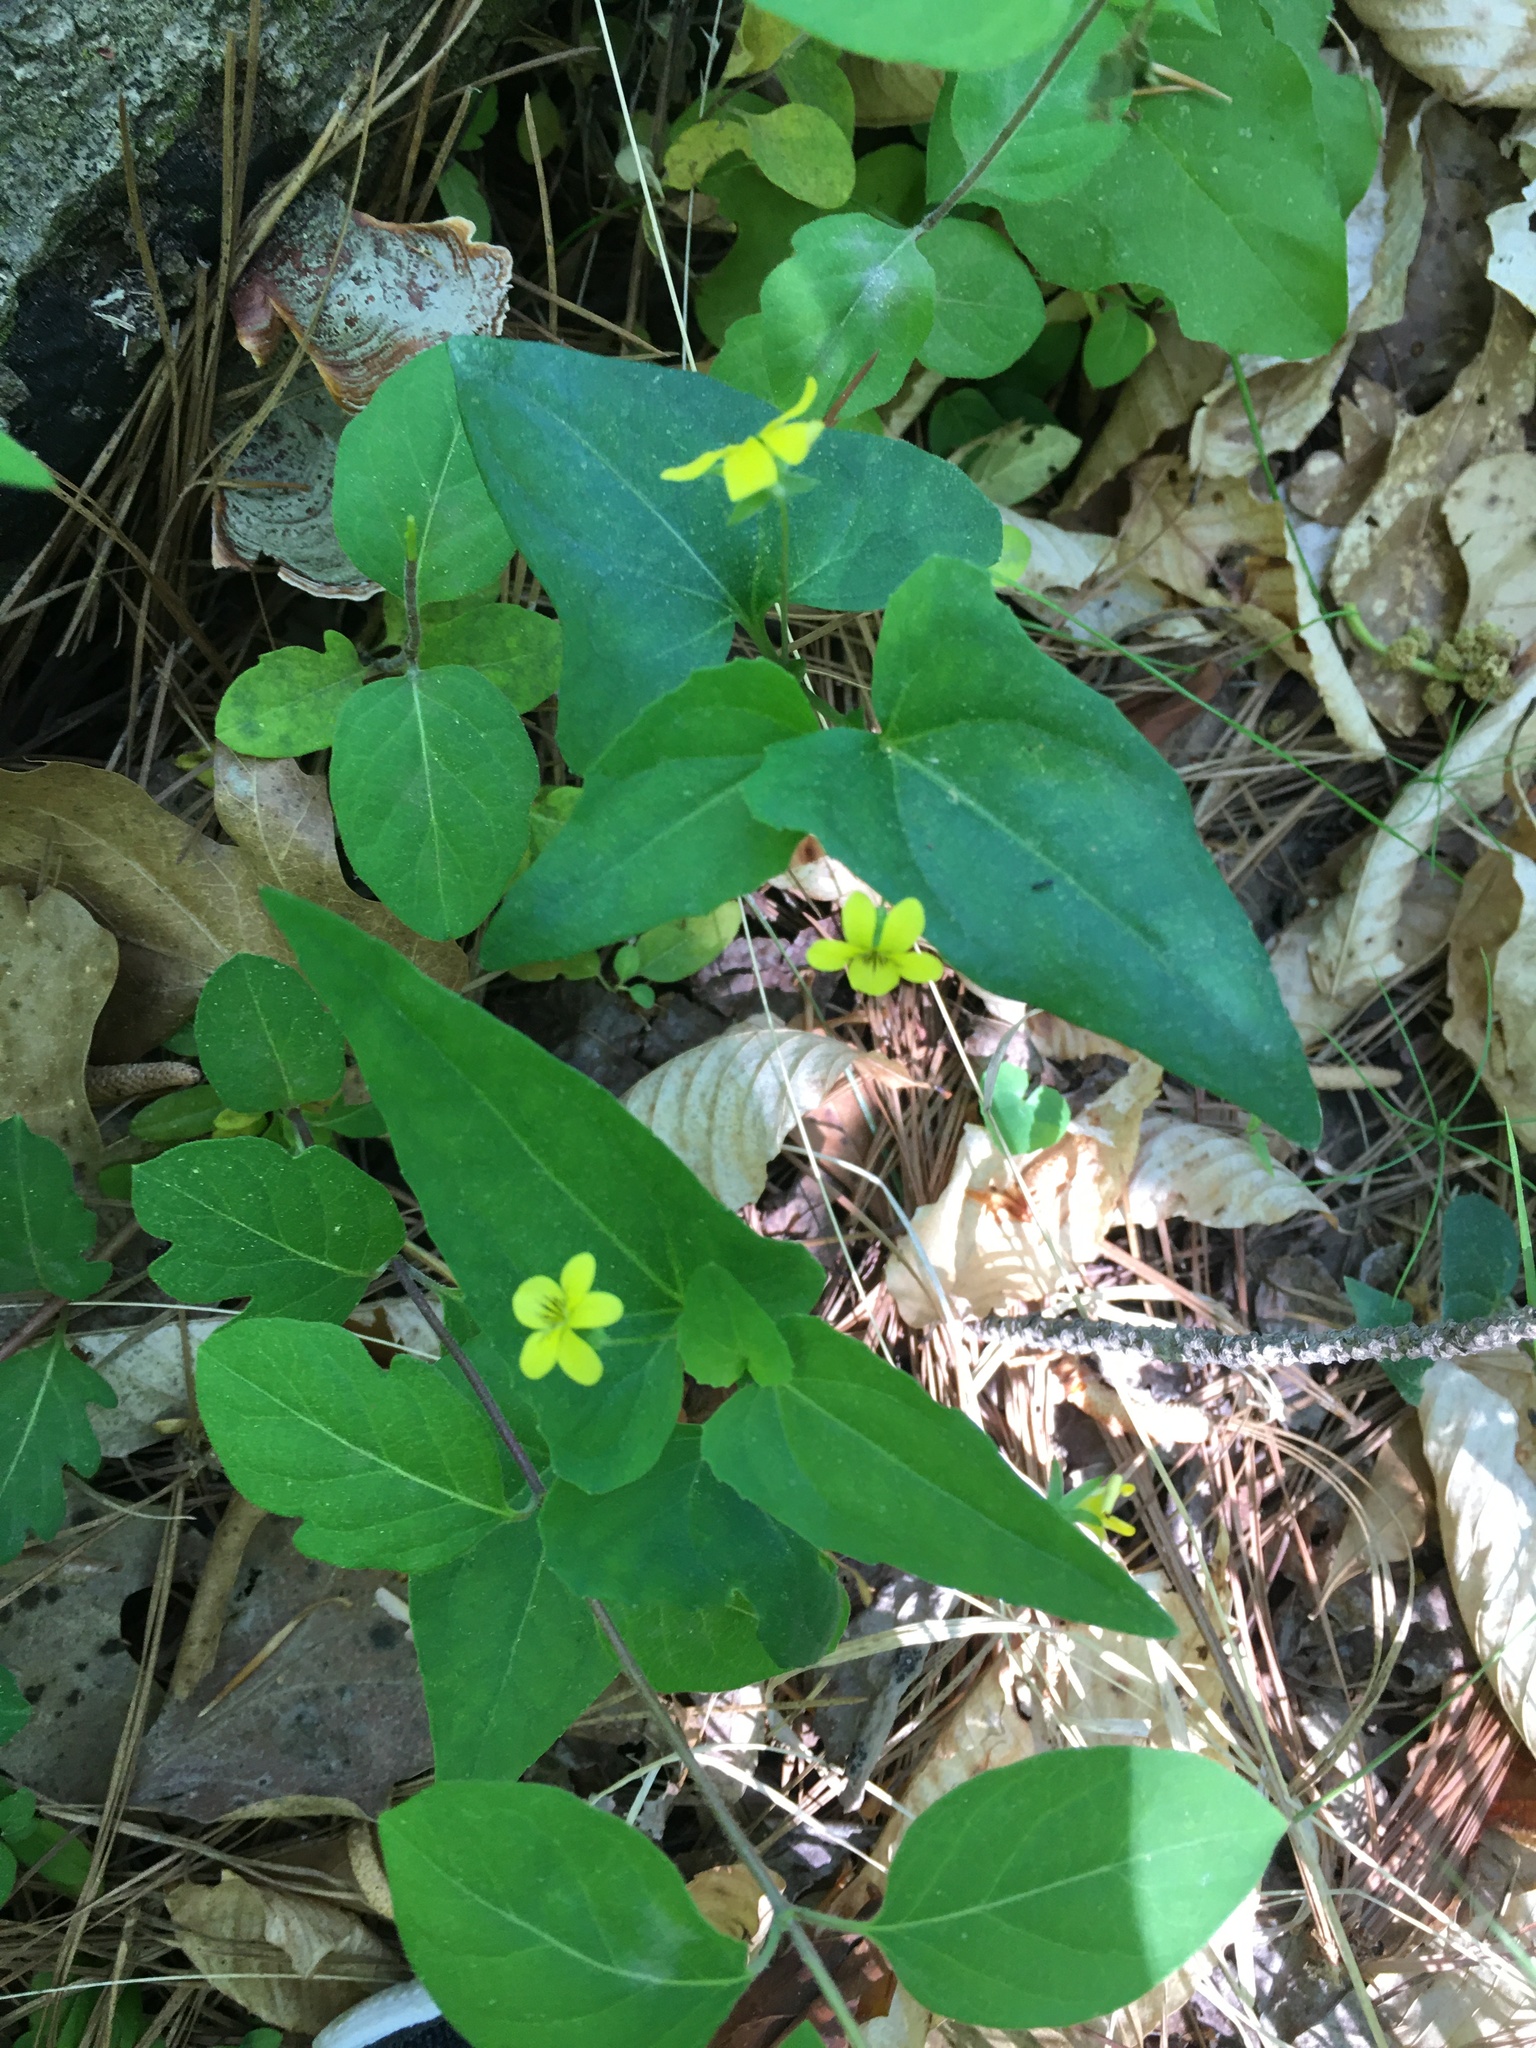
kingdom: Plantae
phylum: Tracheophyta
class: Magnoliopsida
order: Malpighiales
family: Violaceae
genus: Viola
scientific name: Viola hastata
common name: Spear-leaf violet
